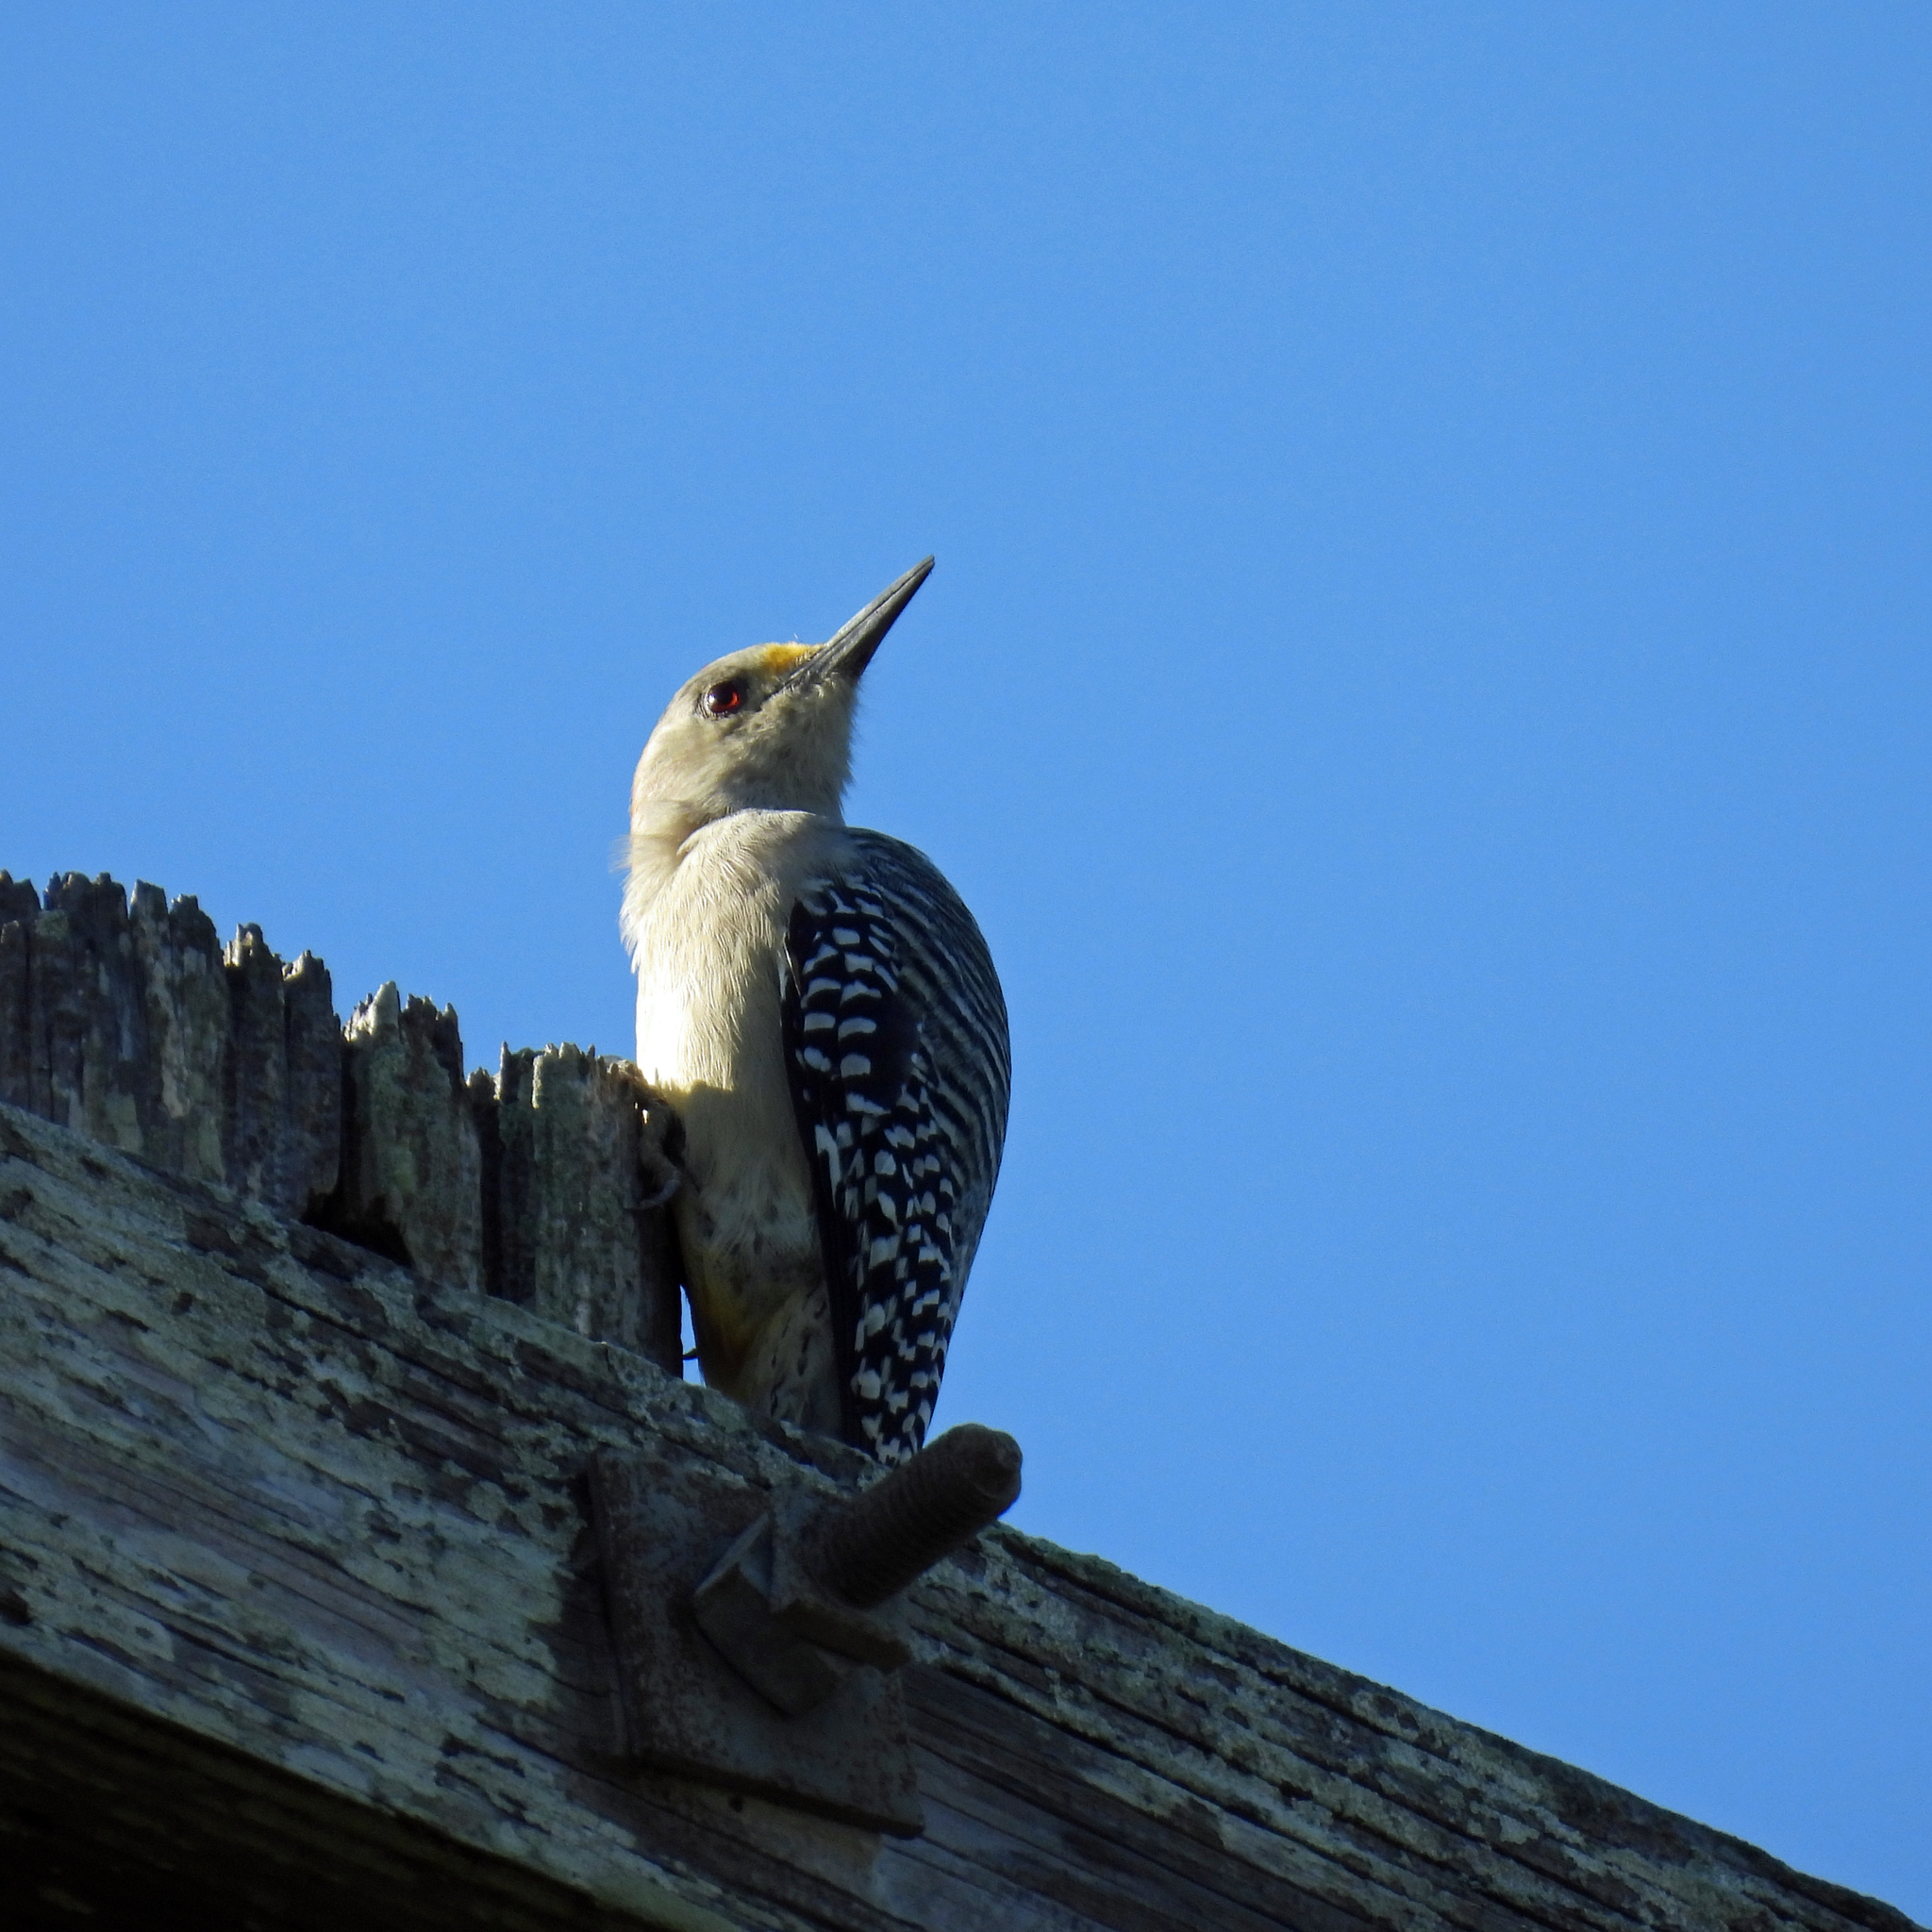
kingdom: Animalia
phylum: Chordata
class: Aves
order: Piciformes
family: Picidae
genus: Melanerpes
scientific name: Melanerpes aurifrons
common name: Golden-fronted woodpecker
